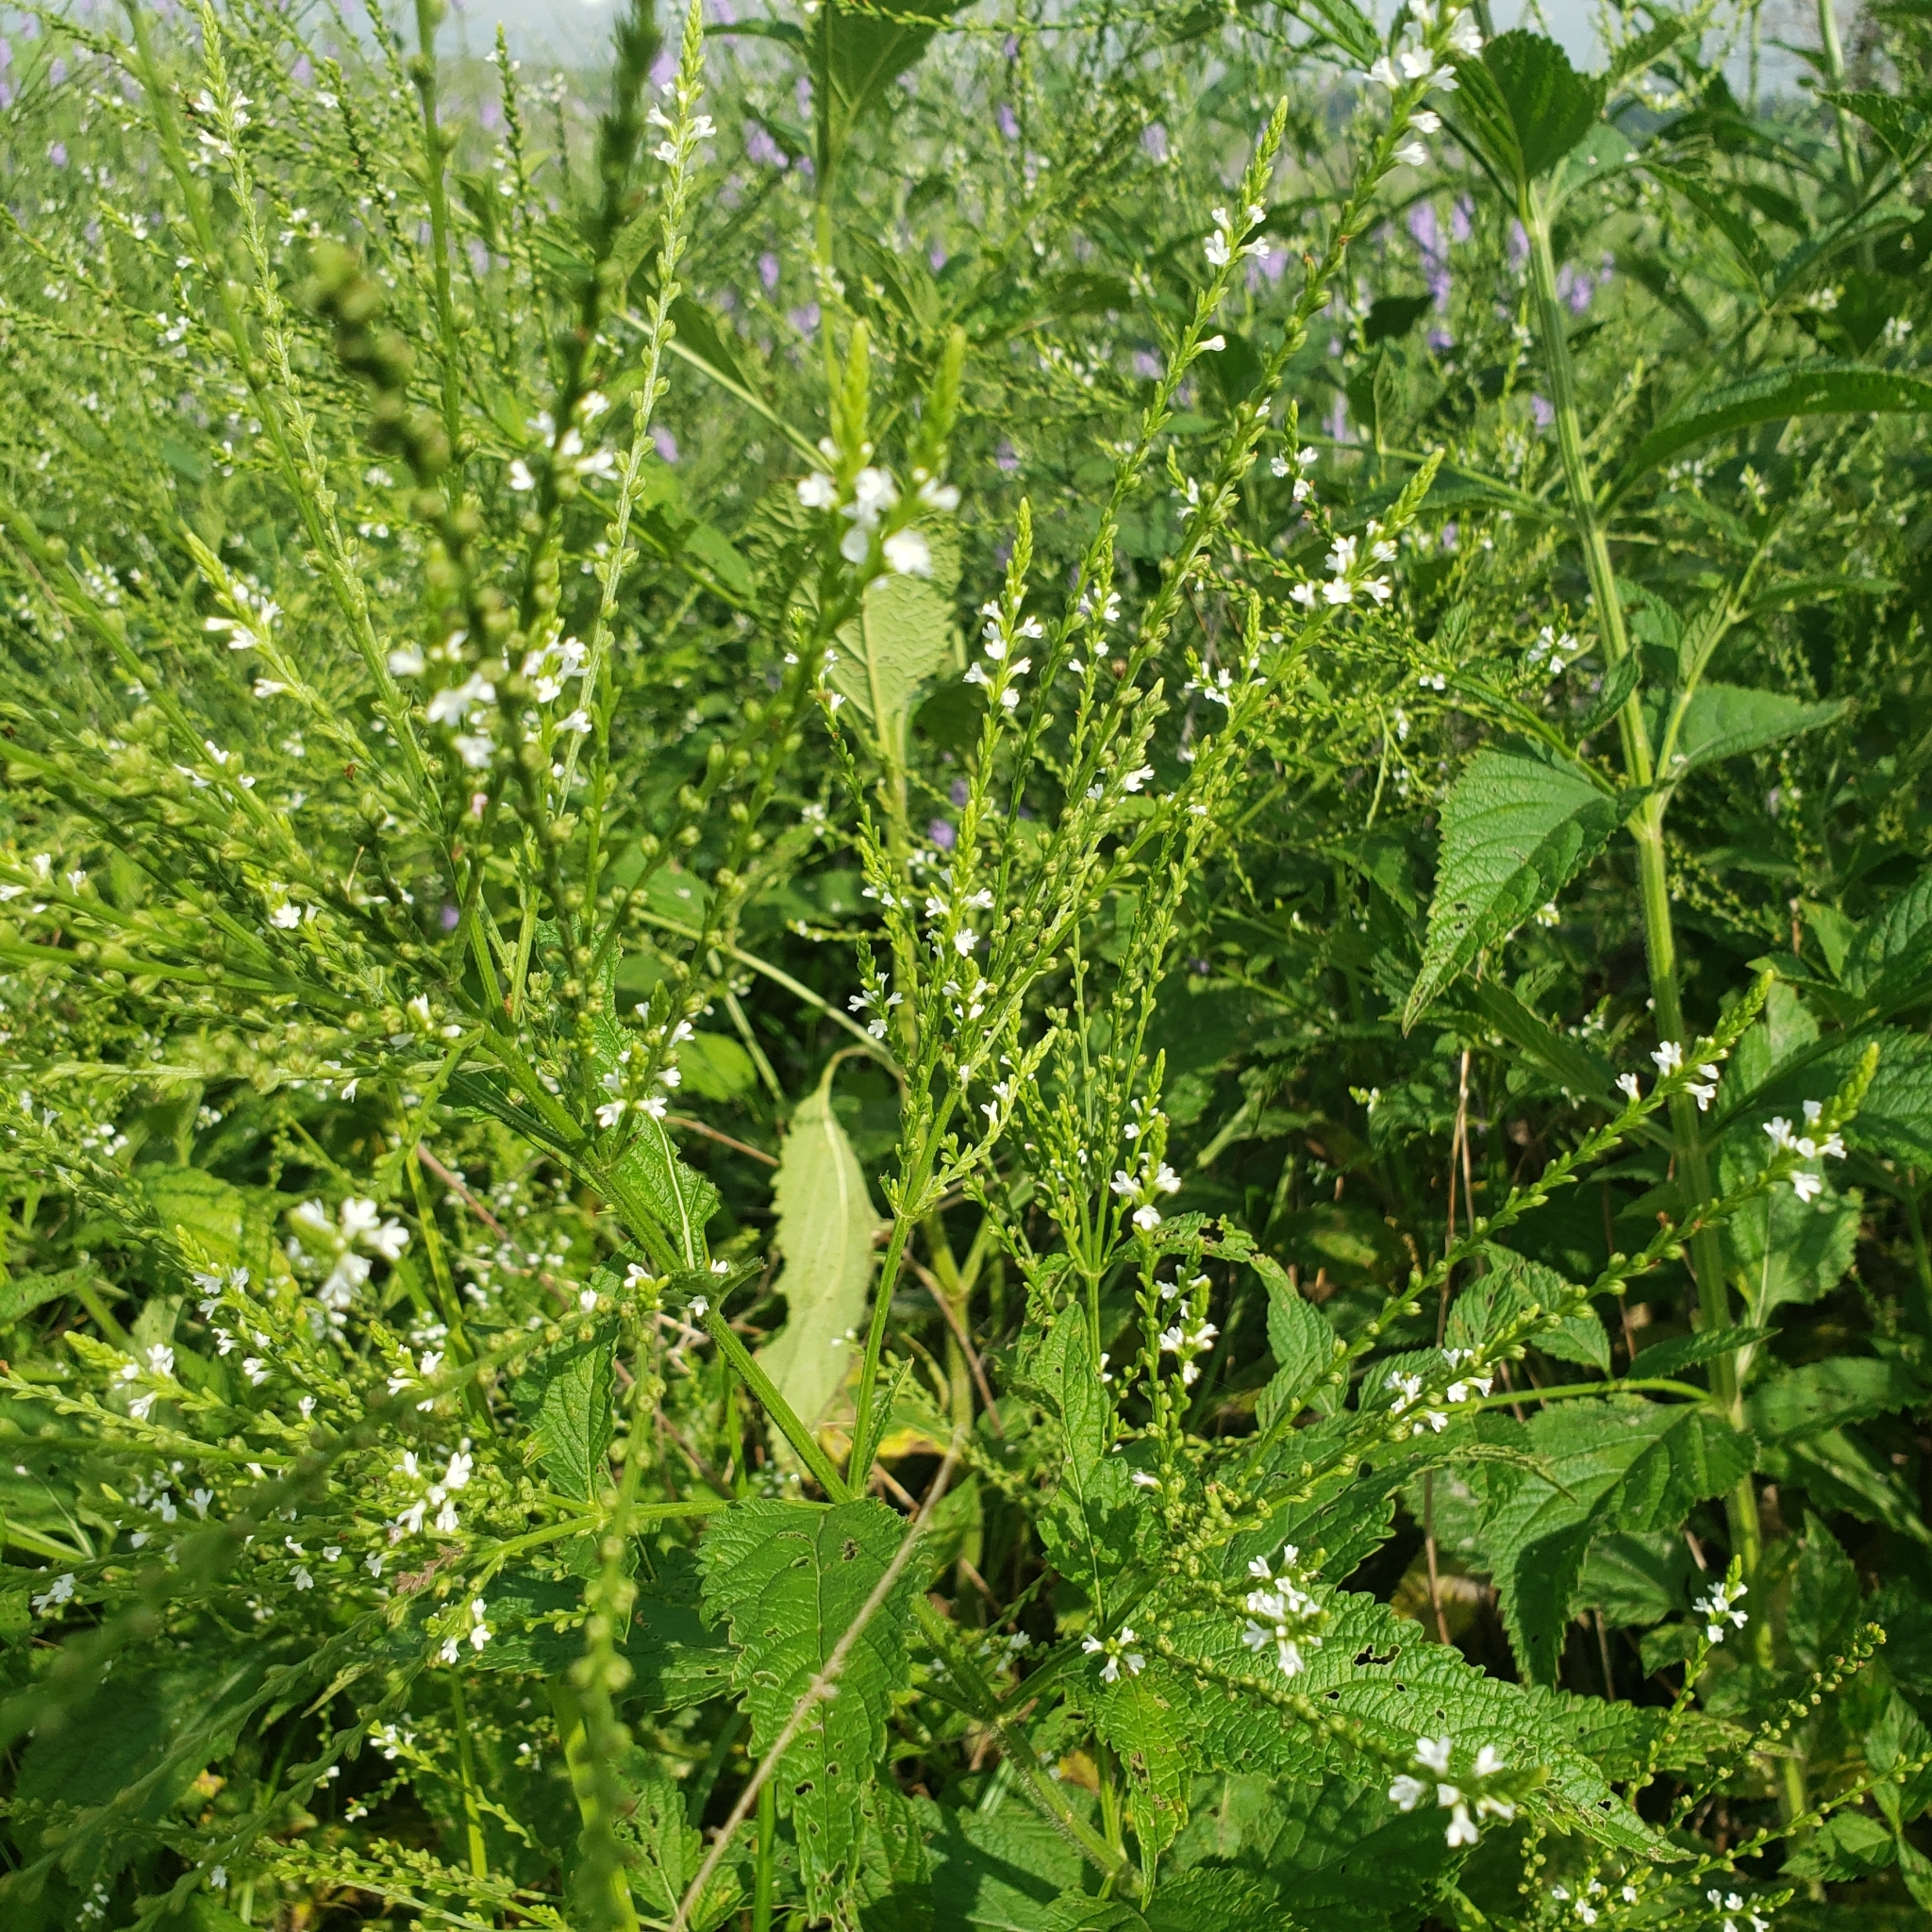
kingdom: Plantae
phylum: Tracheophyta
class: Magnoliopsida
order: Lamiales
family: Verbenaceae
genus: Verbena
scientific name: Verbena urticifolia
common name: Nettle-leaved vervain
